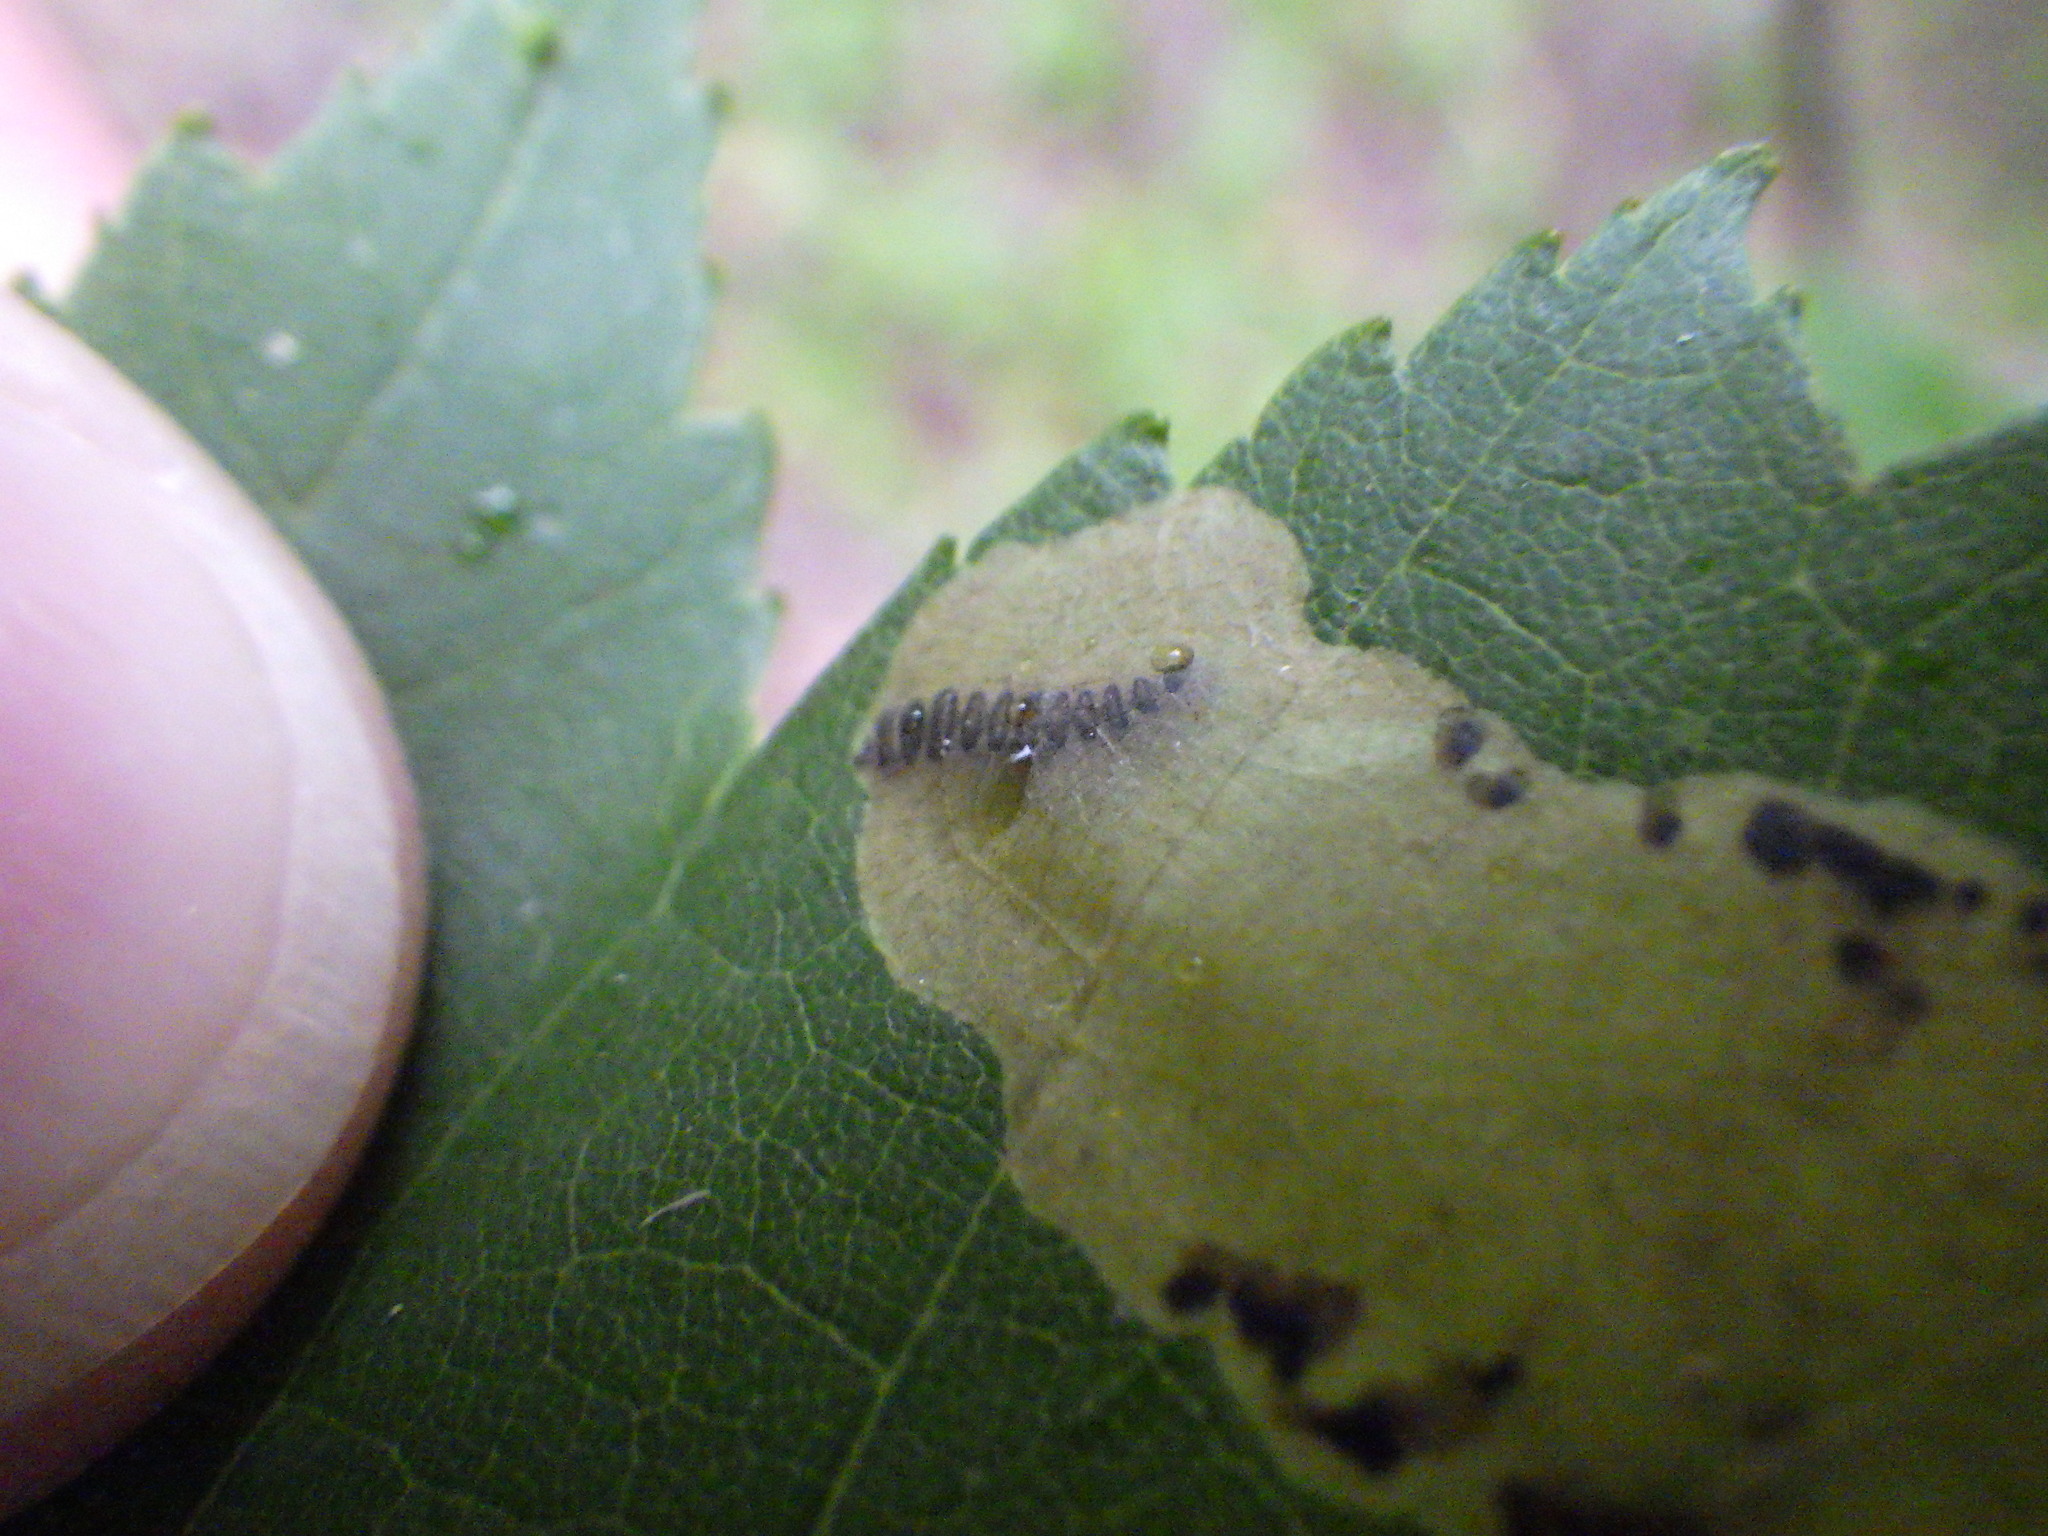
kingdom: Animalia
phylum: Arthropoda
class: Insecta
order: Lepidoptera
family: Gracillariidae
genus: Cameraria
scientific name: Cameraria aceriella
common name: Maple leafblotch miner
